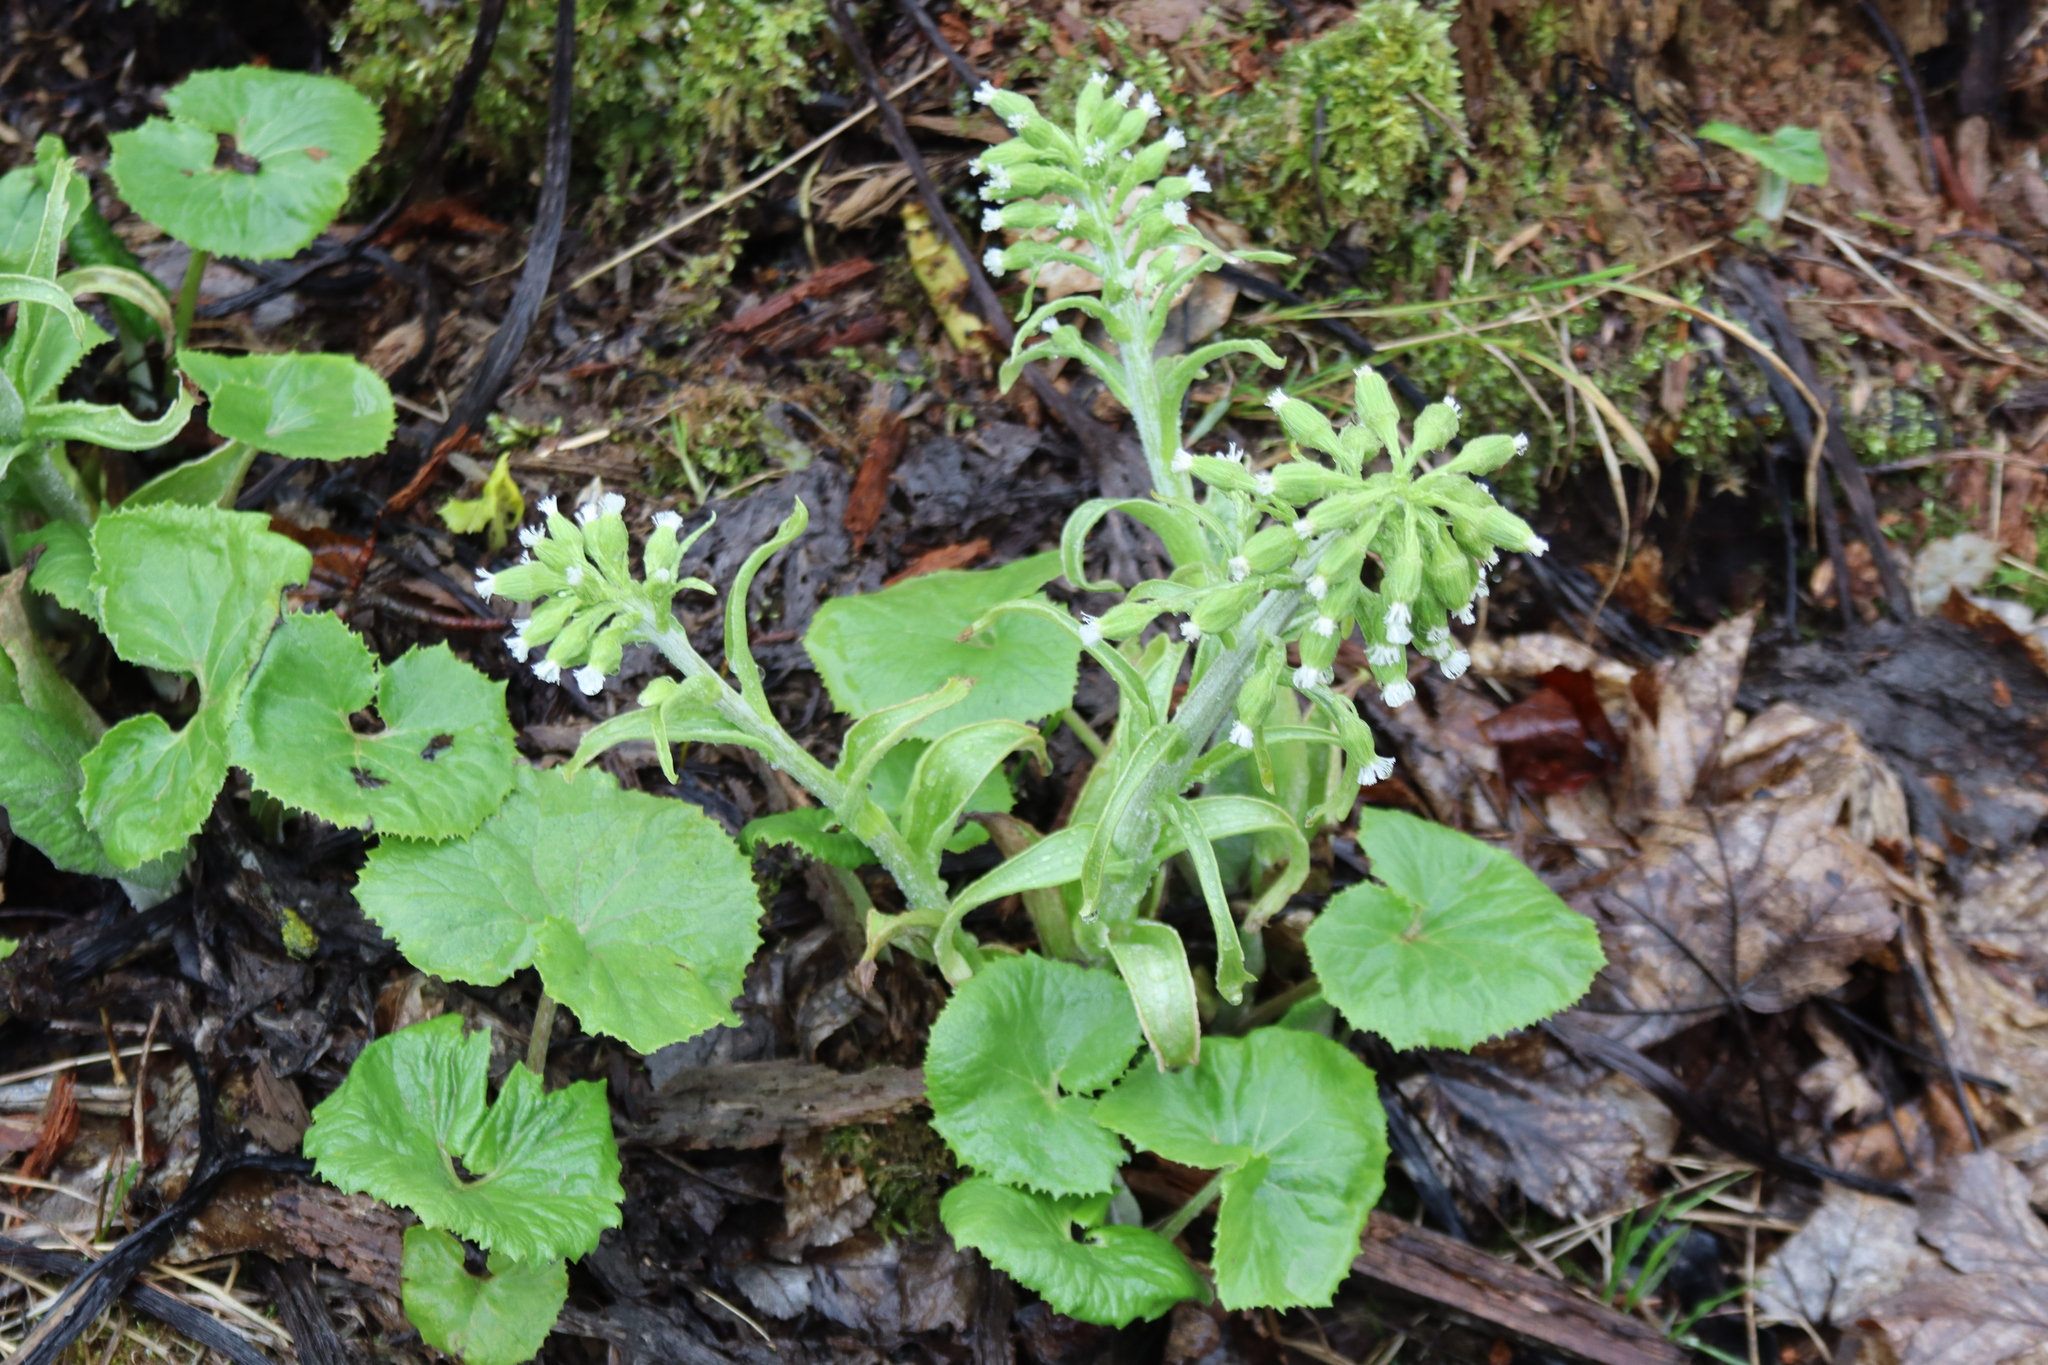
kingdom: Plantae
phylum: Tracheophyta
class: Magnoliopsida
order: Asterales
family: Asteraceae
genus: Petasites
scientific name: Petasites albus
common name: White butterbur
